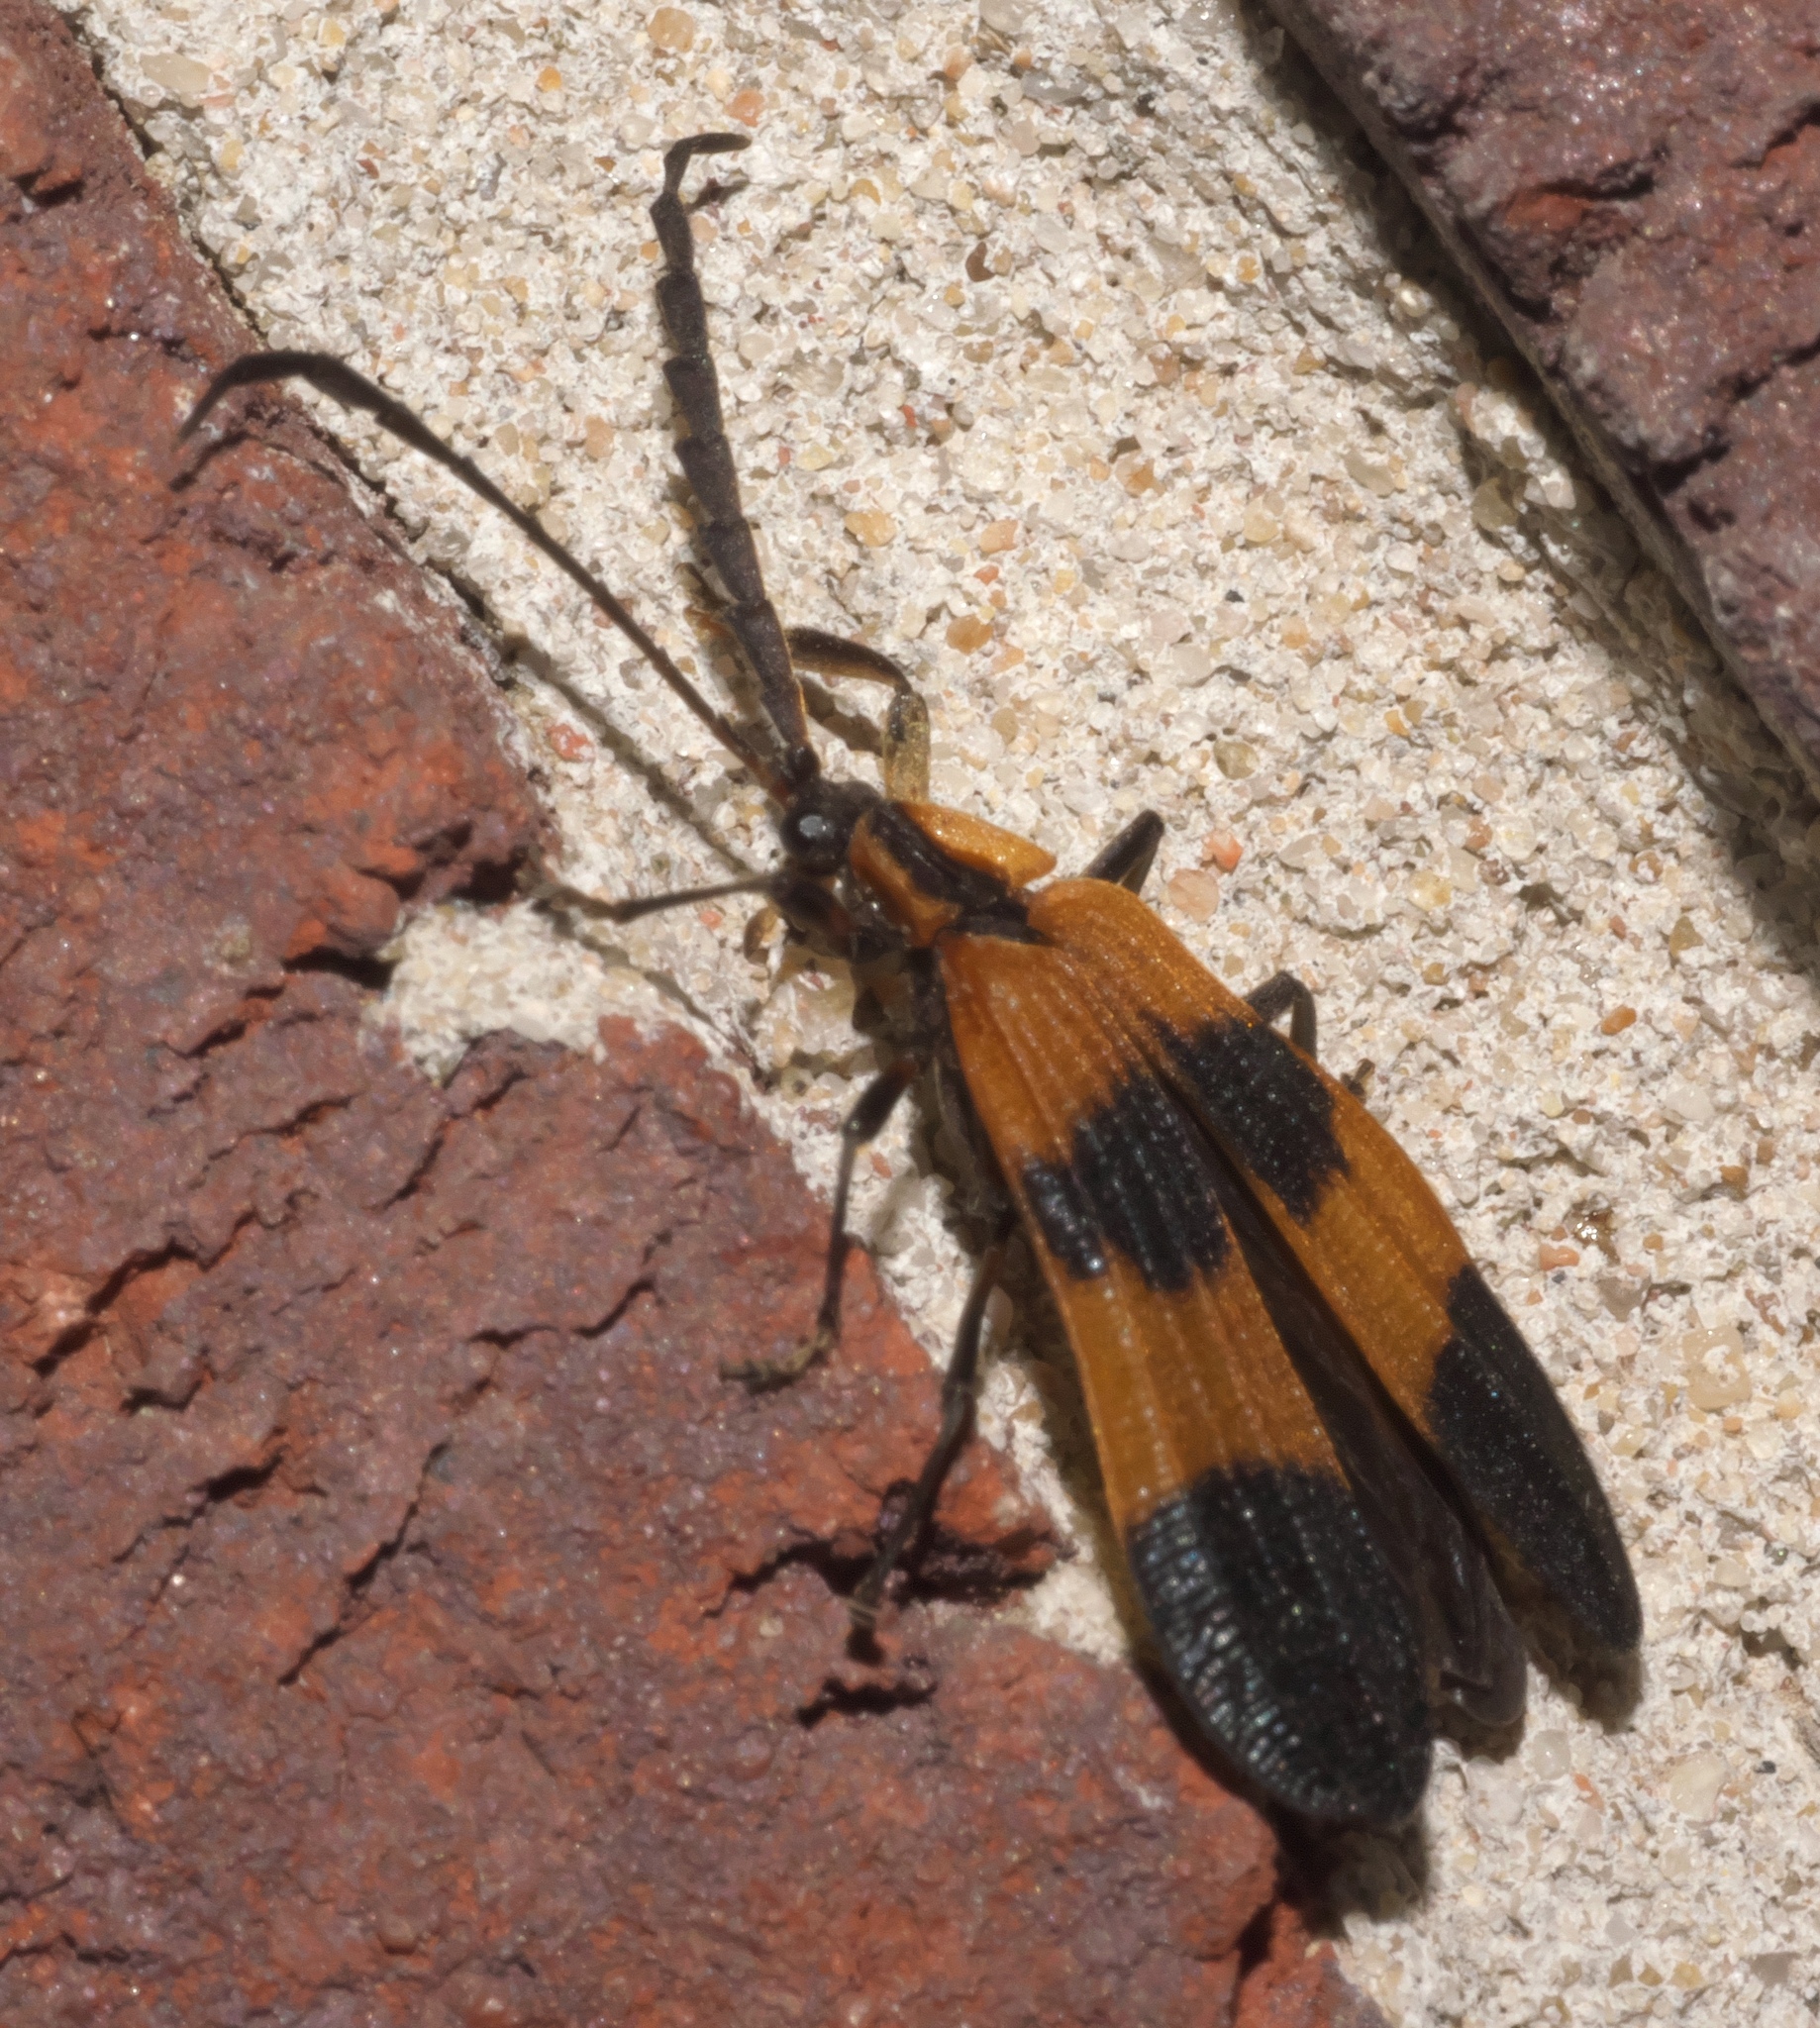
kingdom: Animalia
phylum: Arthropoda
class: Insecta
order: Coleoptera
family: Lycidae
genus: Calopteron
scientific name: Calopteron reticulatum
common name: Banded net-winged beetle
